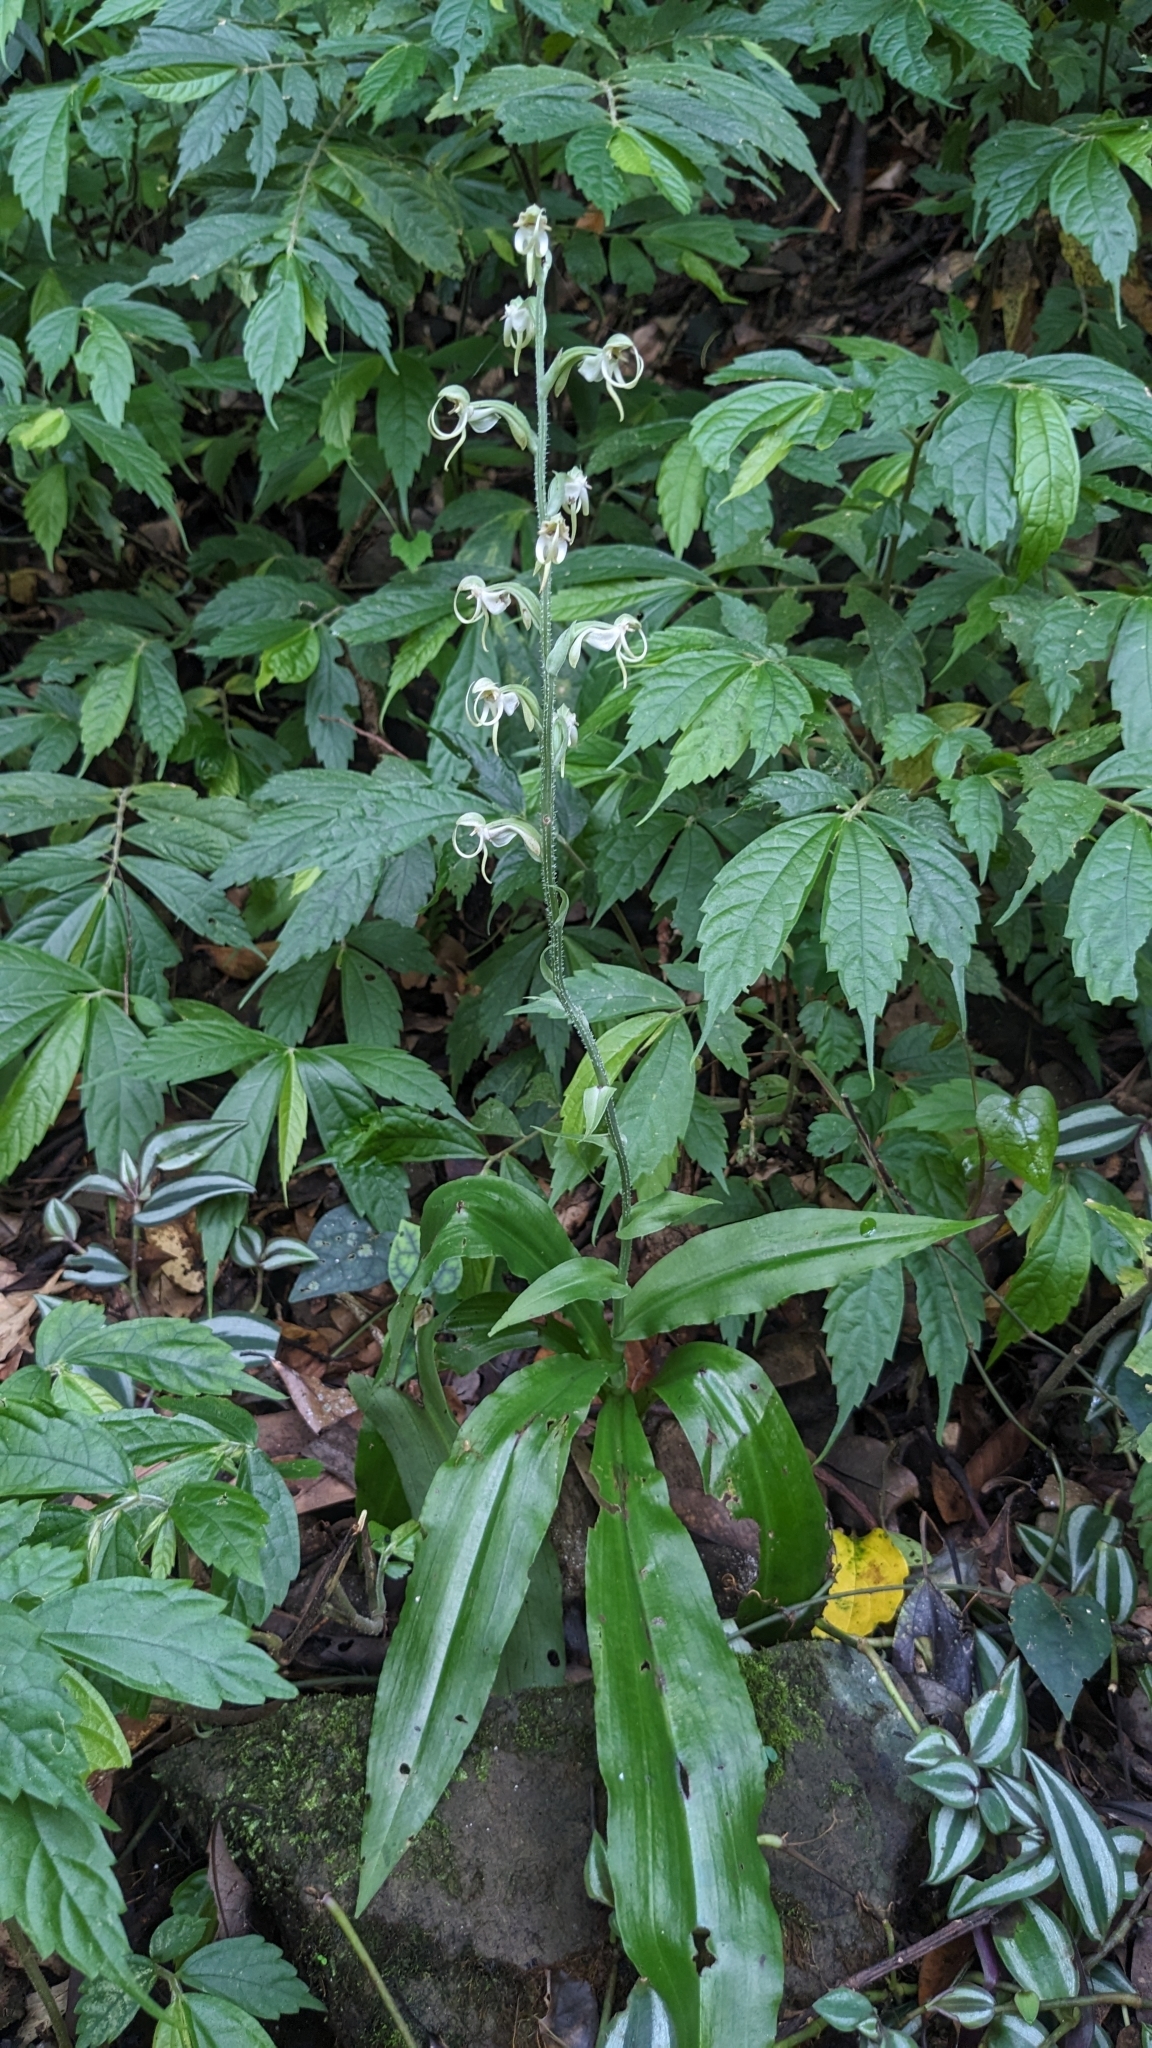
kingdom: Plantae
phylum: Tracheophyta
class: Liliopsida
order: Asparagales
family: Orchidaceae
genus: Habenaria
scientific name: Habenaria ciliolaris
